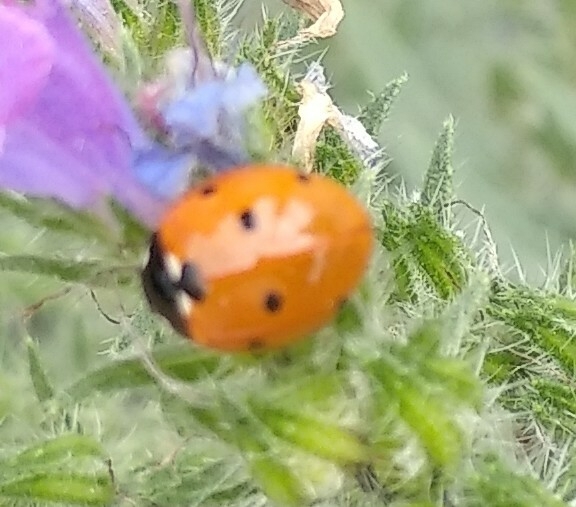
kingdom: Animalia
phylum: Arthropoda
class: Insecta
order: Coleoptera
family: Coccinellidae
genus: Coccinella
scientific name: Coccinella septempunctata
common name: Sevenspotted lady beetle
